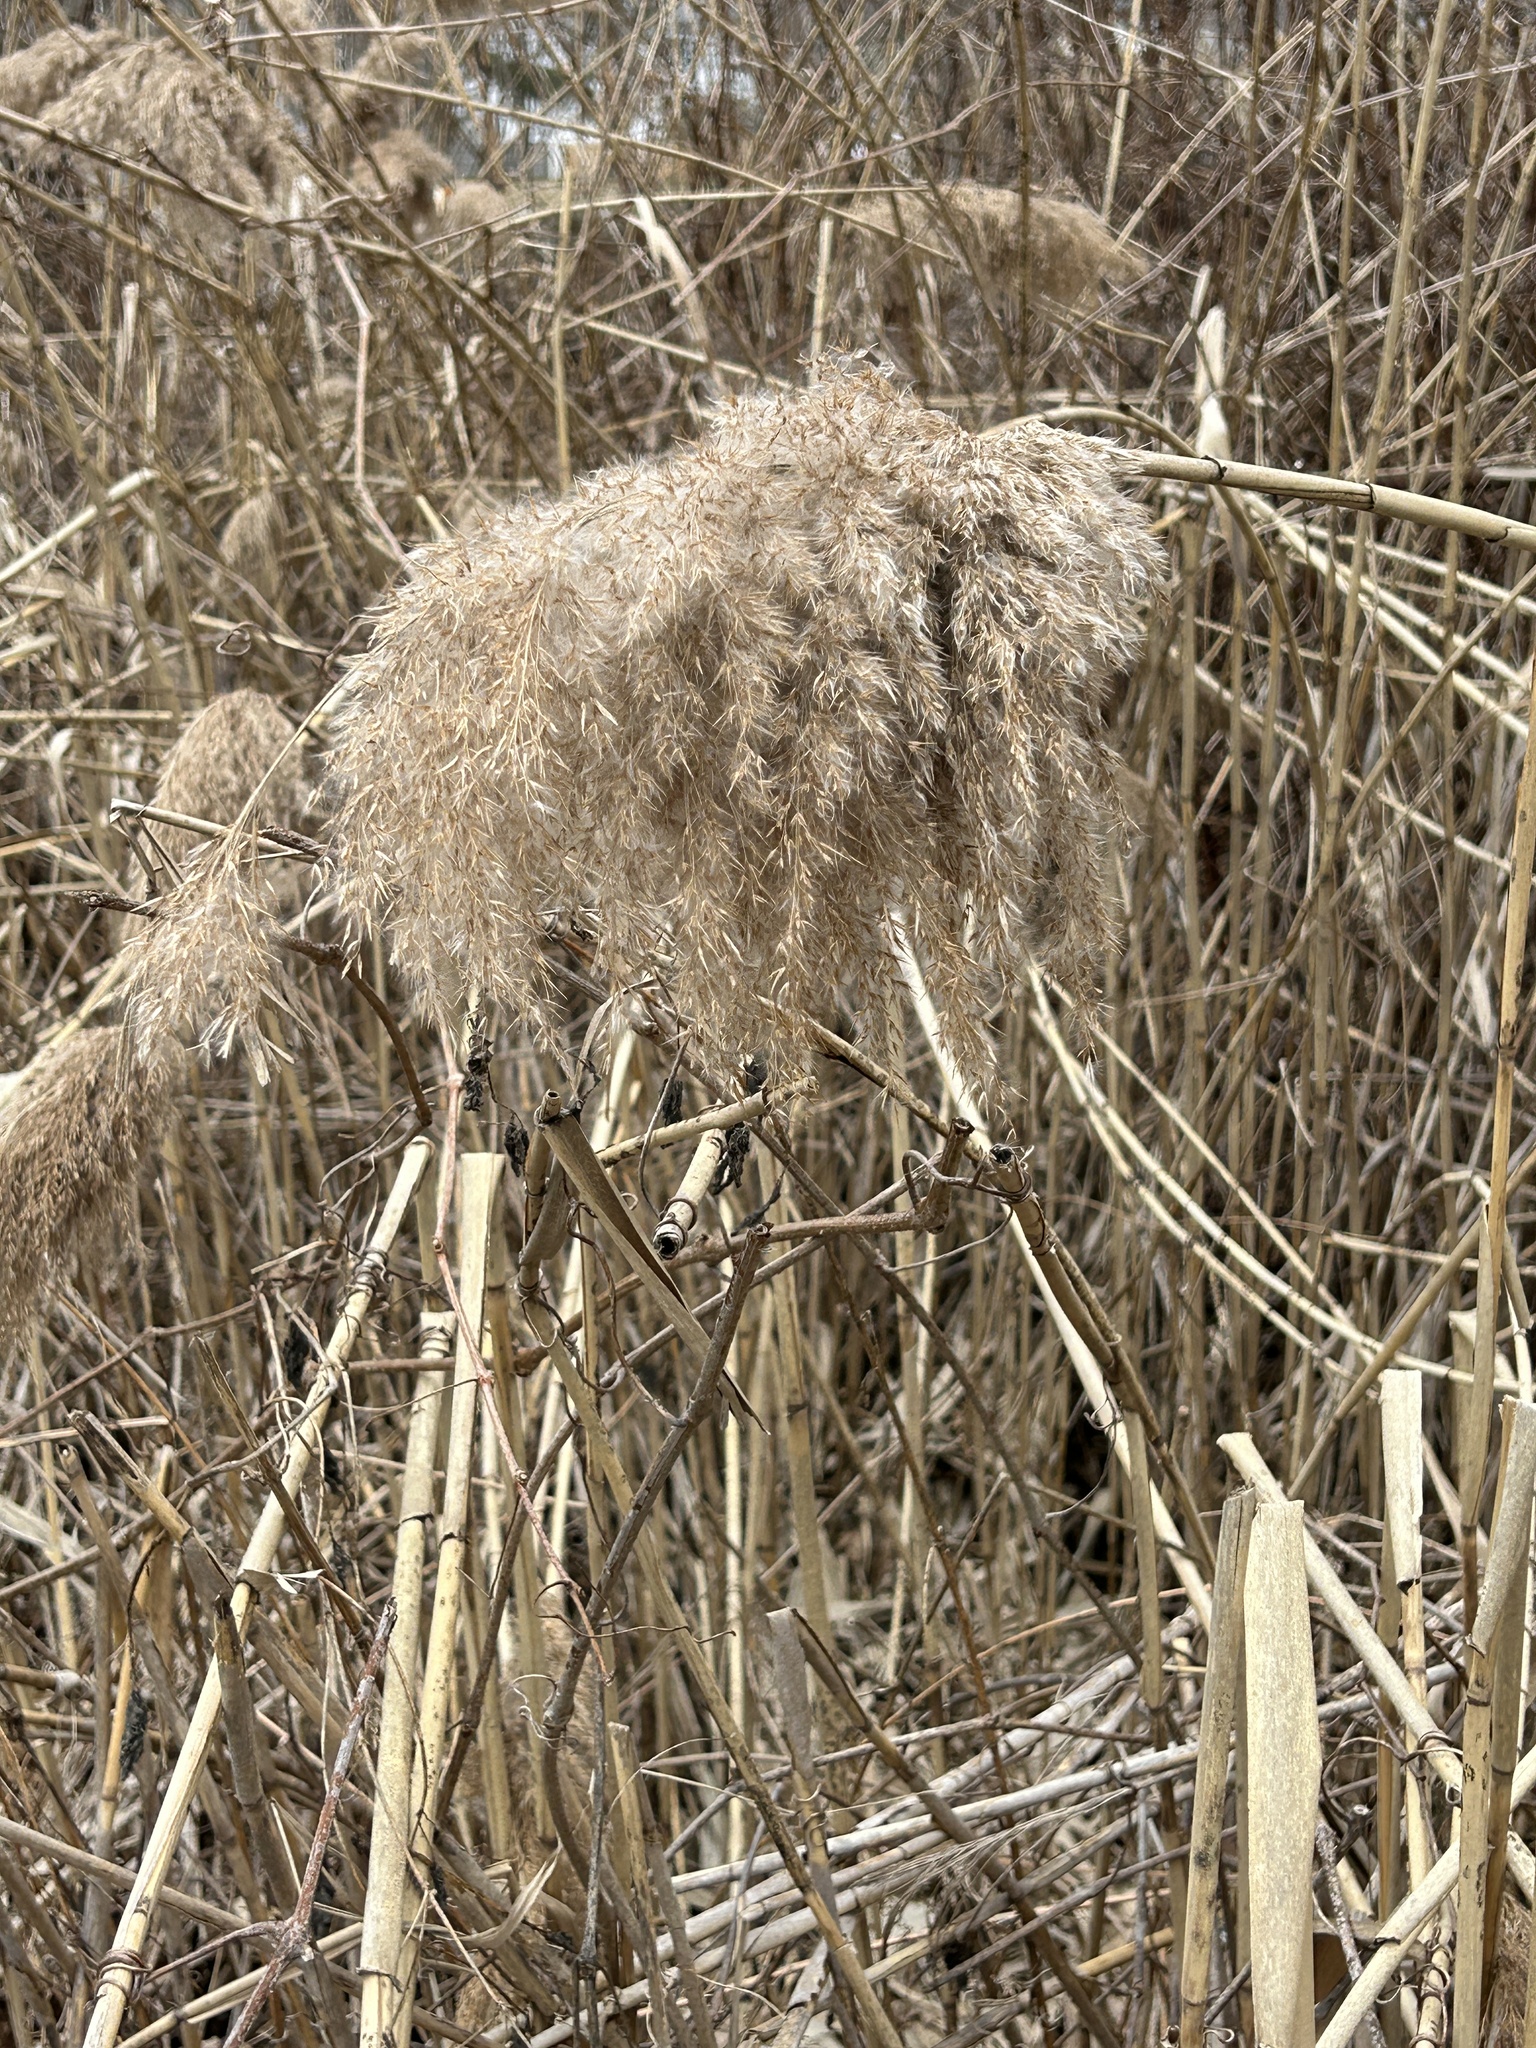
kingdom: Plantae
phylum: Tracheophyta
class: Liliopsida
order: Poales
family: Poaceae
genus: Phragmites
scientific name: Phragmites australis
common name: Common reed
